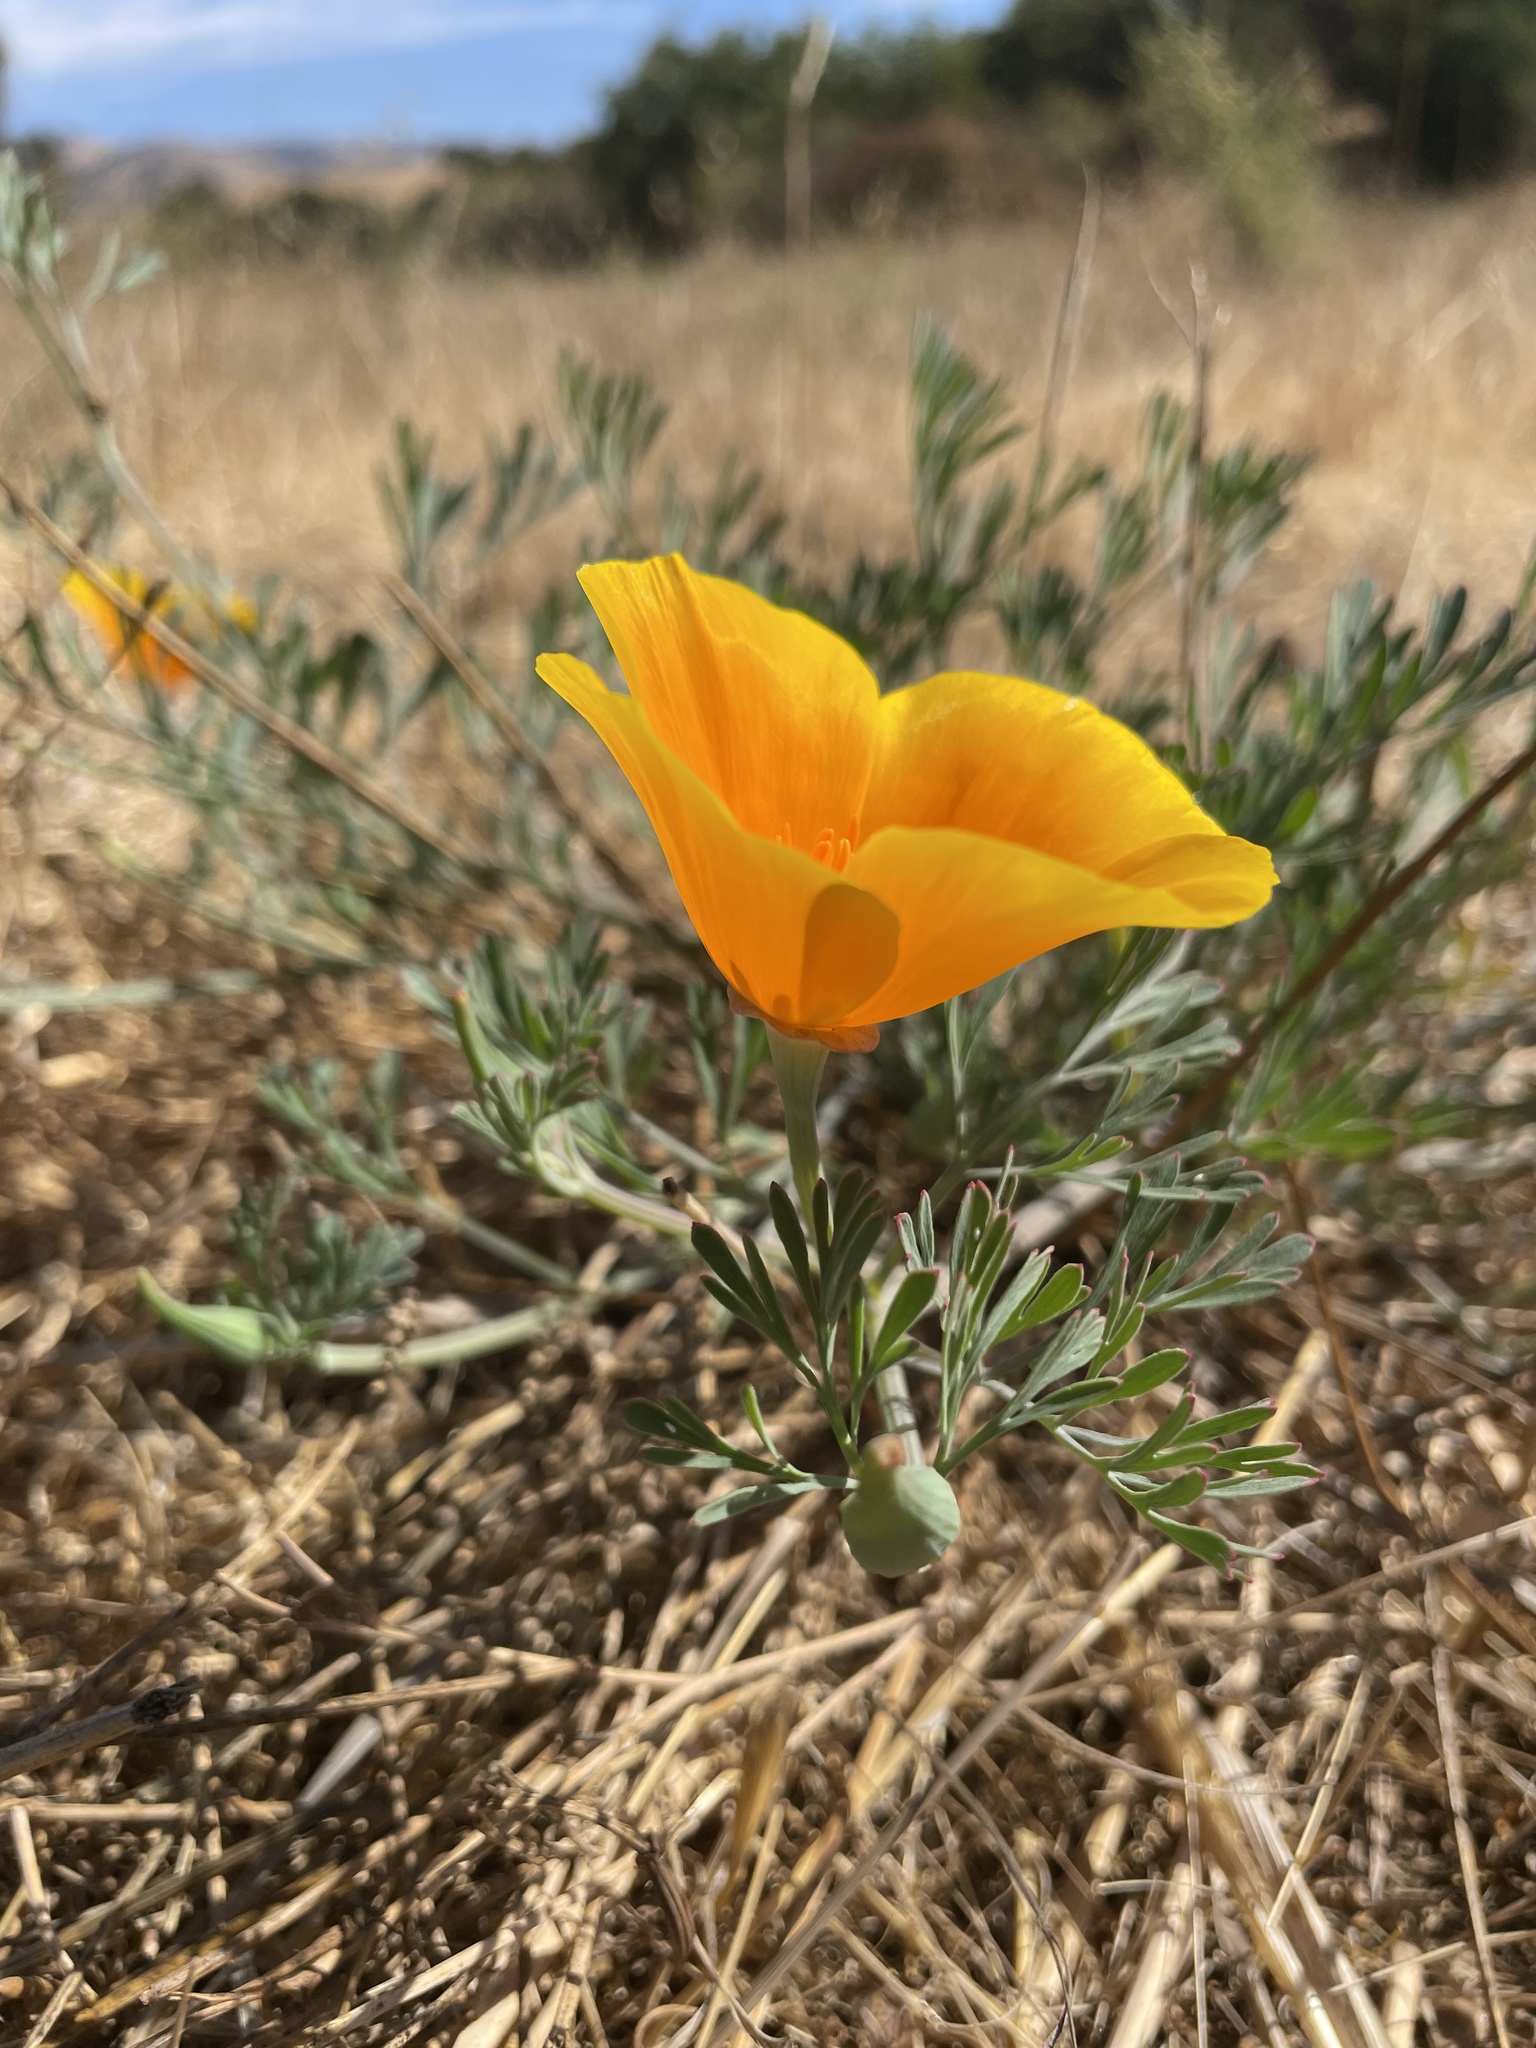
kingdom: Plantae
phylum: Tracheophyta
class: Magnoliopsida
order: Ranunculales
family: Papaveraceae
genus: Eschscholzia
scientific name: Eschscholzia californica
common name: California poppy
